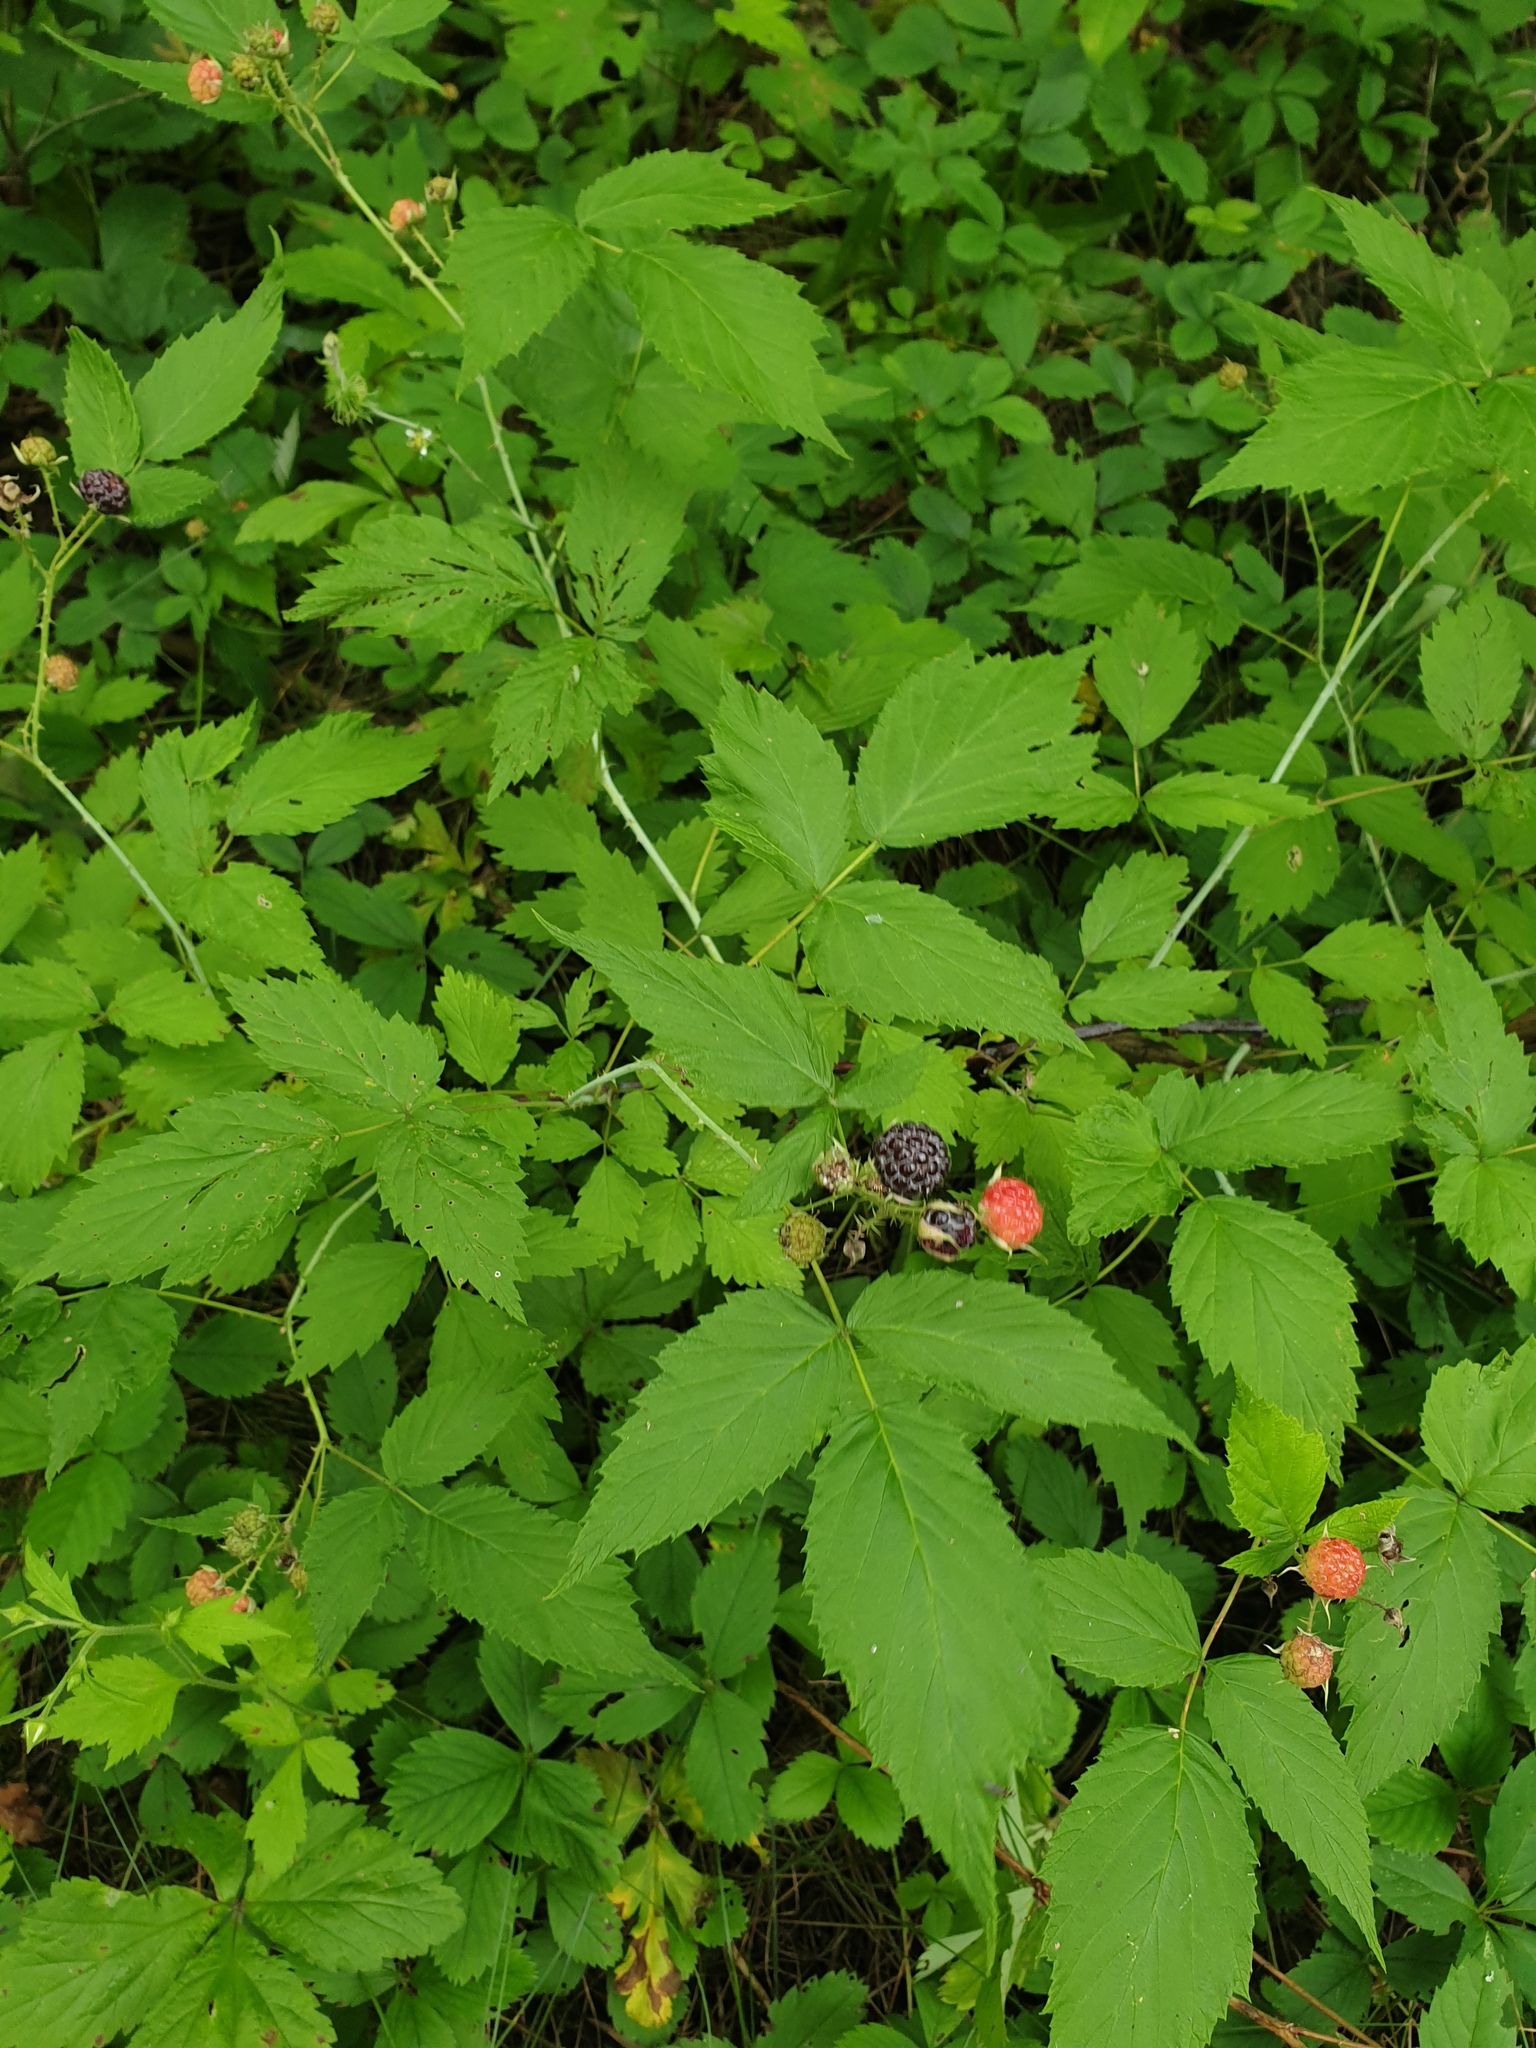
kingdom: Plantae
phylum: Tracheophyta
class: Magnoliopsida
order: Rosales
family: Rosaceae
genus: Rubus
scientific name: Rubus occidentalis
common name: Black raspberry
